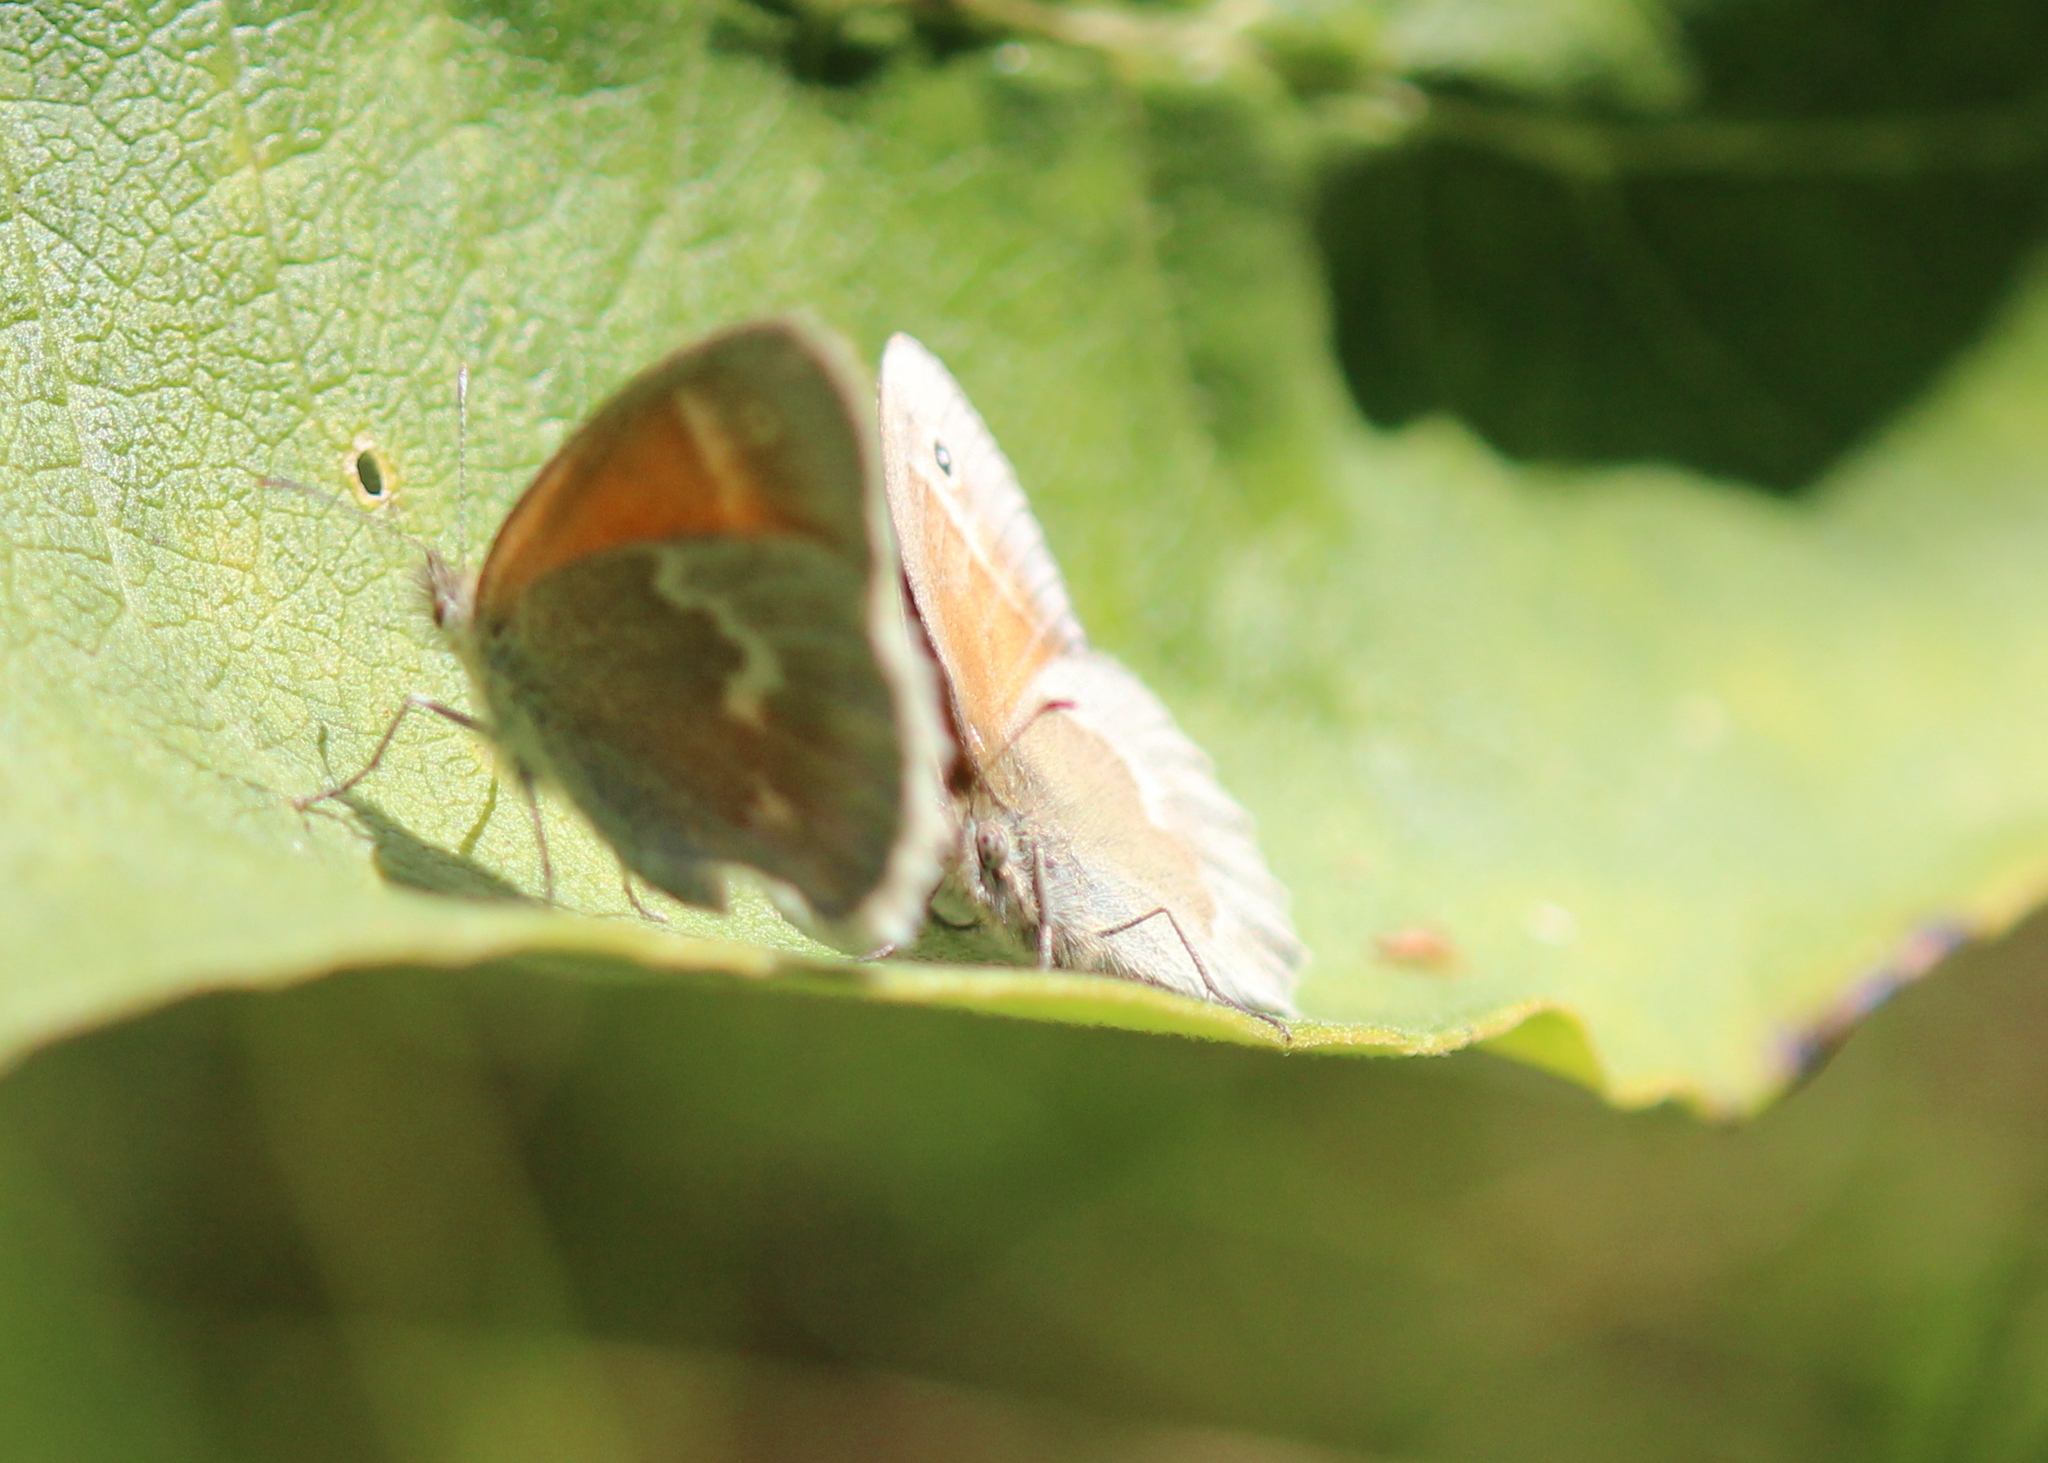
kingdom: Animalia
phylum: Arthropoda
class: Insecta
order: Lepidoptera
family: Nymphalidae
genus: Coenonympha
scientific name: Coenonympha california
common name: Common ringlet
